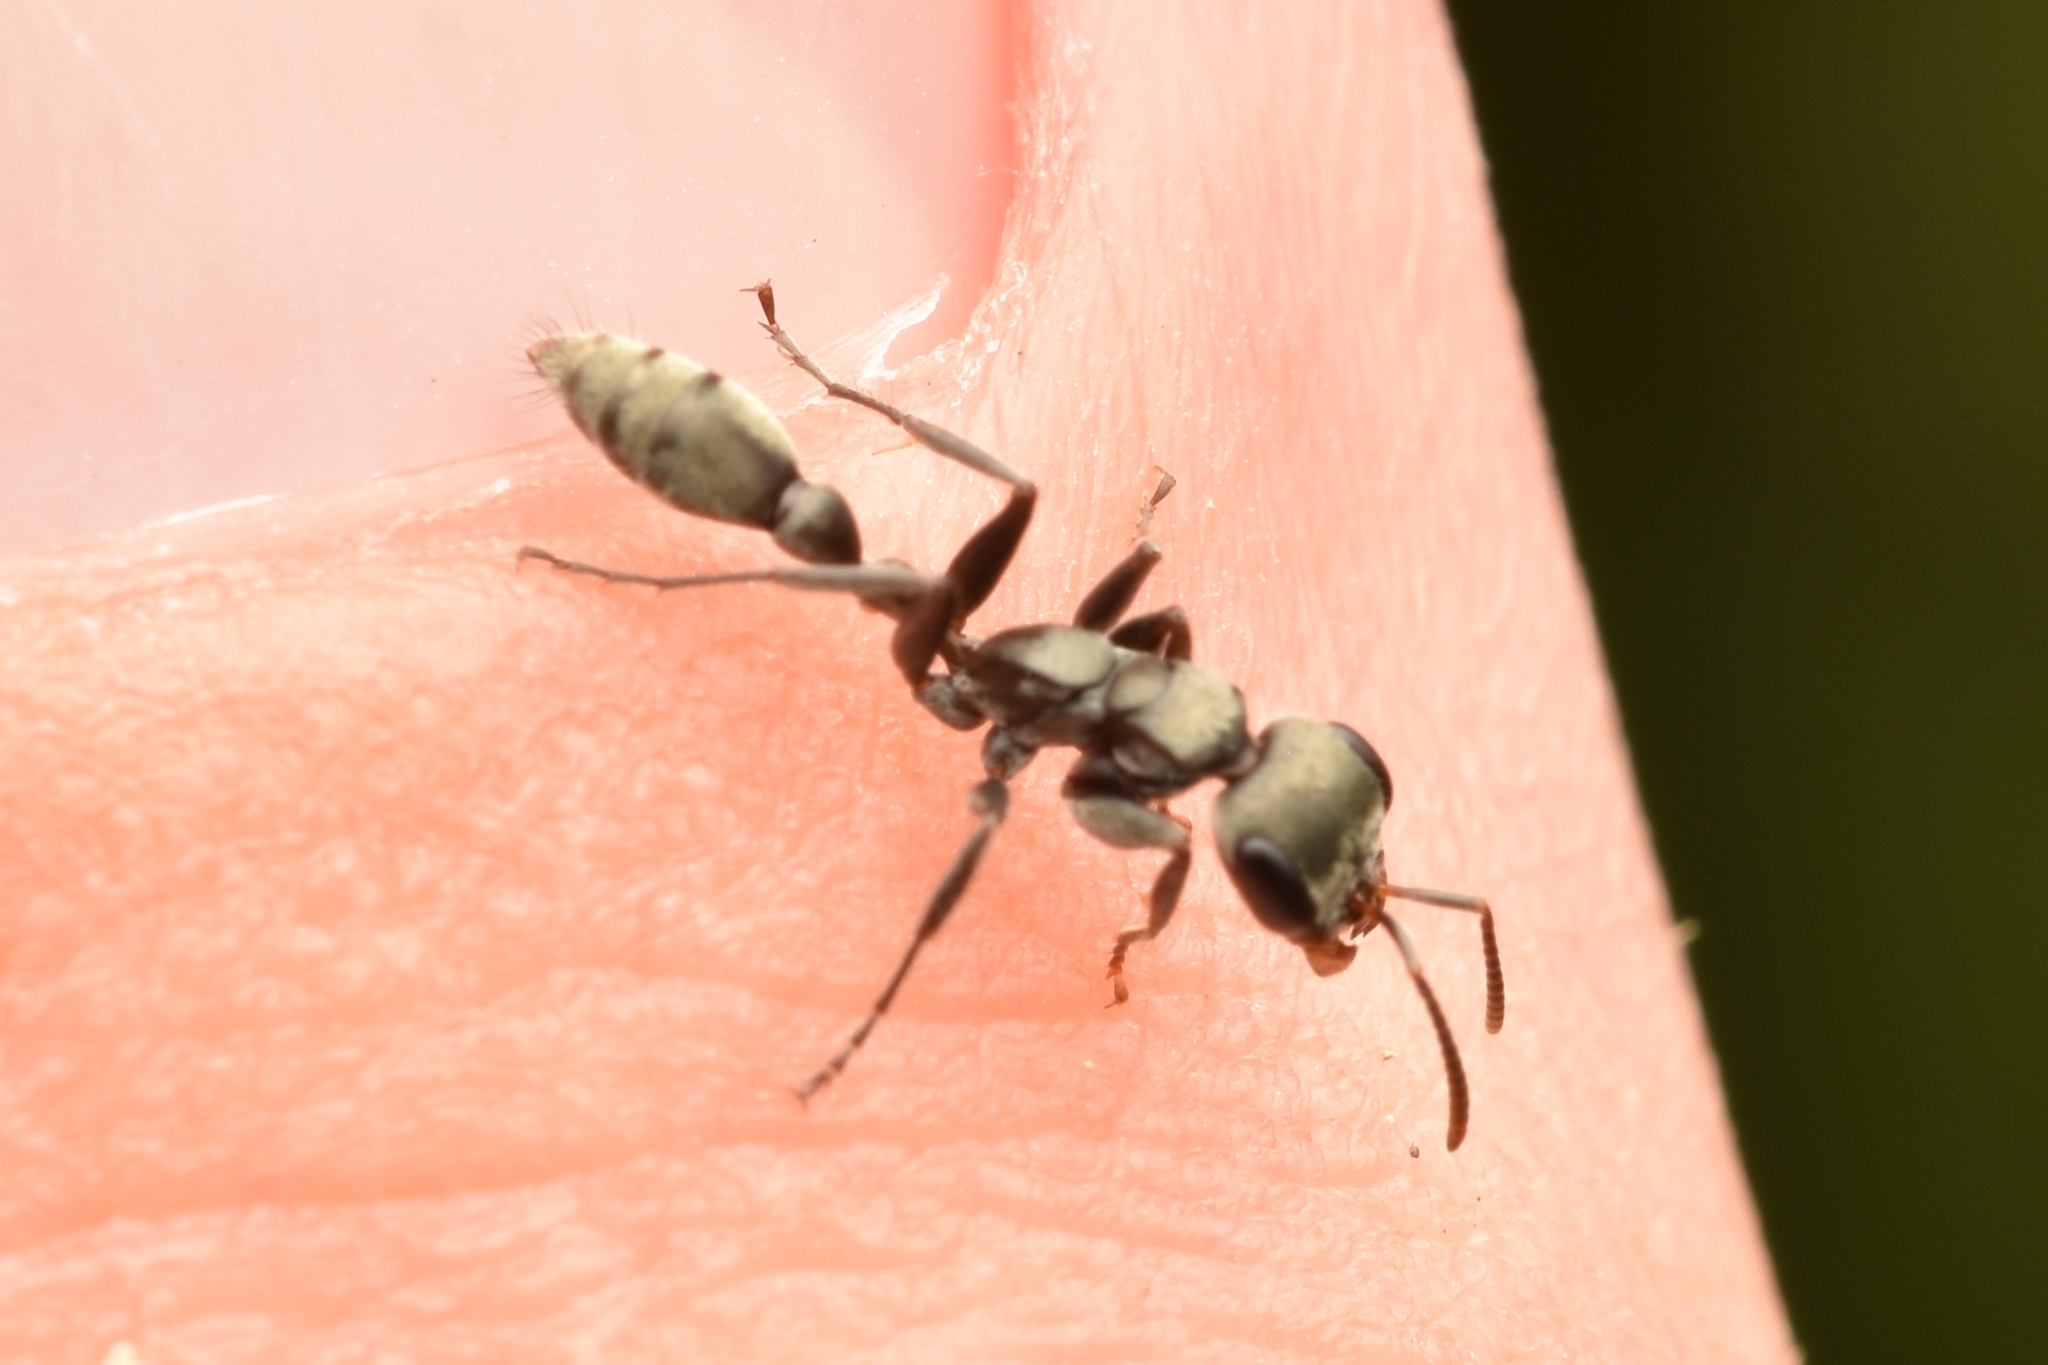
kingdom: Animalia
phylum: Arthropoda
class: Insecta
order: Hymenoptera
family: Formicidae
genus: Pseudomyrmex
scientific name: Pseudomyrmex gracilis
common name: Graceful twig ant
